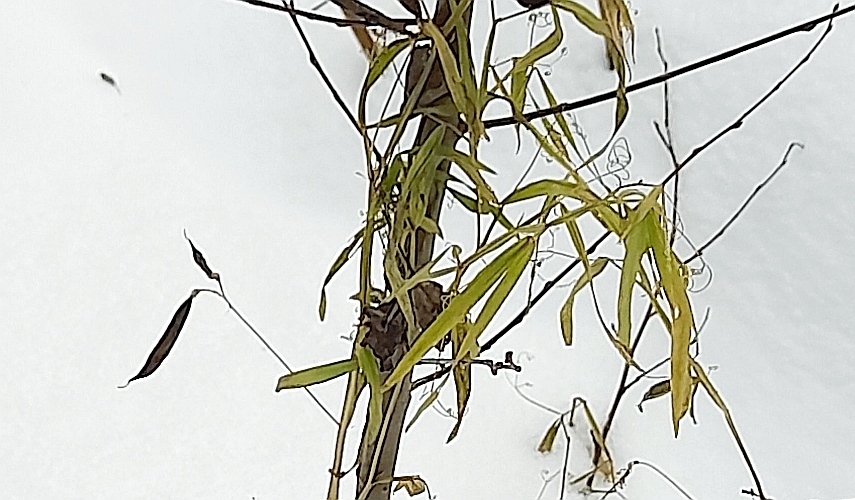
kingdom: Plantae
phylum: Tracheophyta
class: Magnoliopsida
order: Fabales
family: Fabaceae
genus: Lathyrus
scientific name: Lathyrus sylvestris
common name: Flat pea
